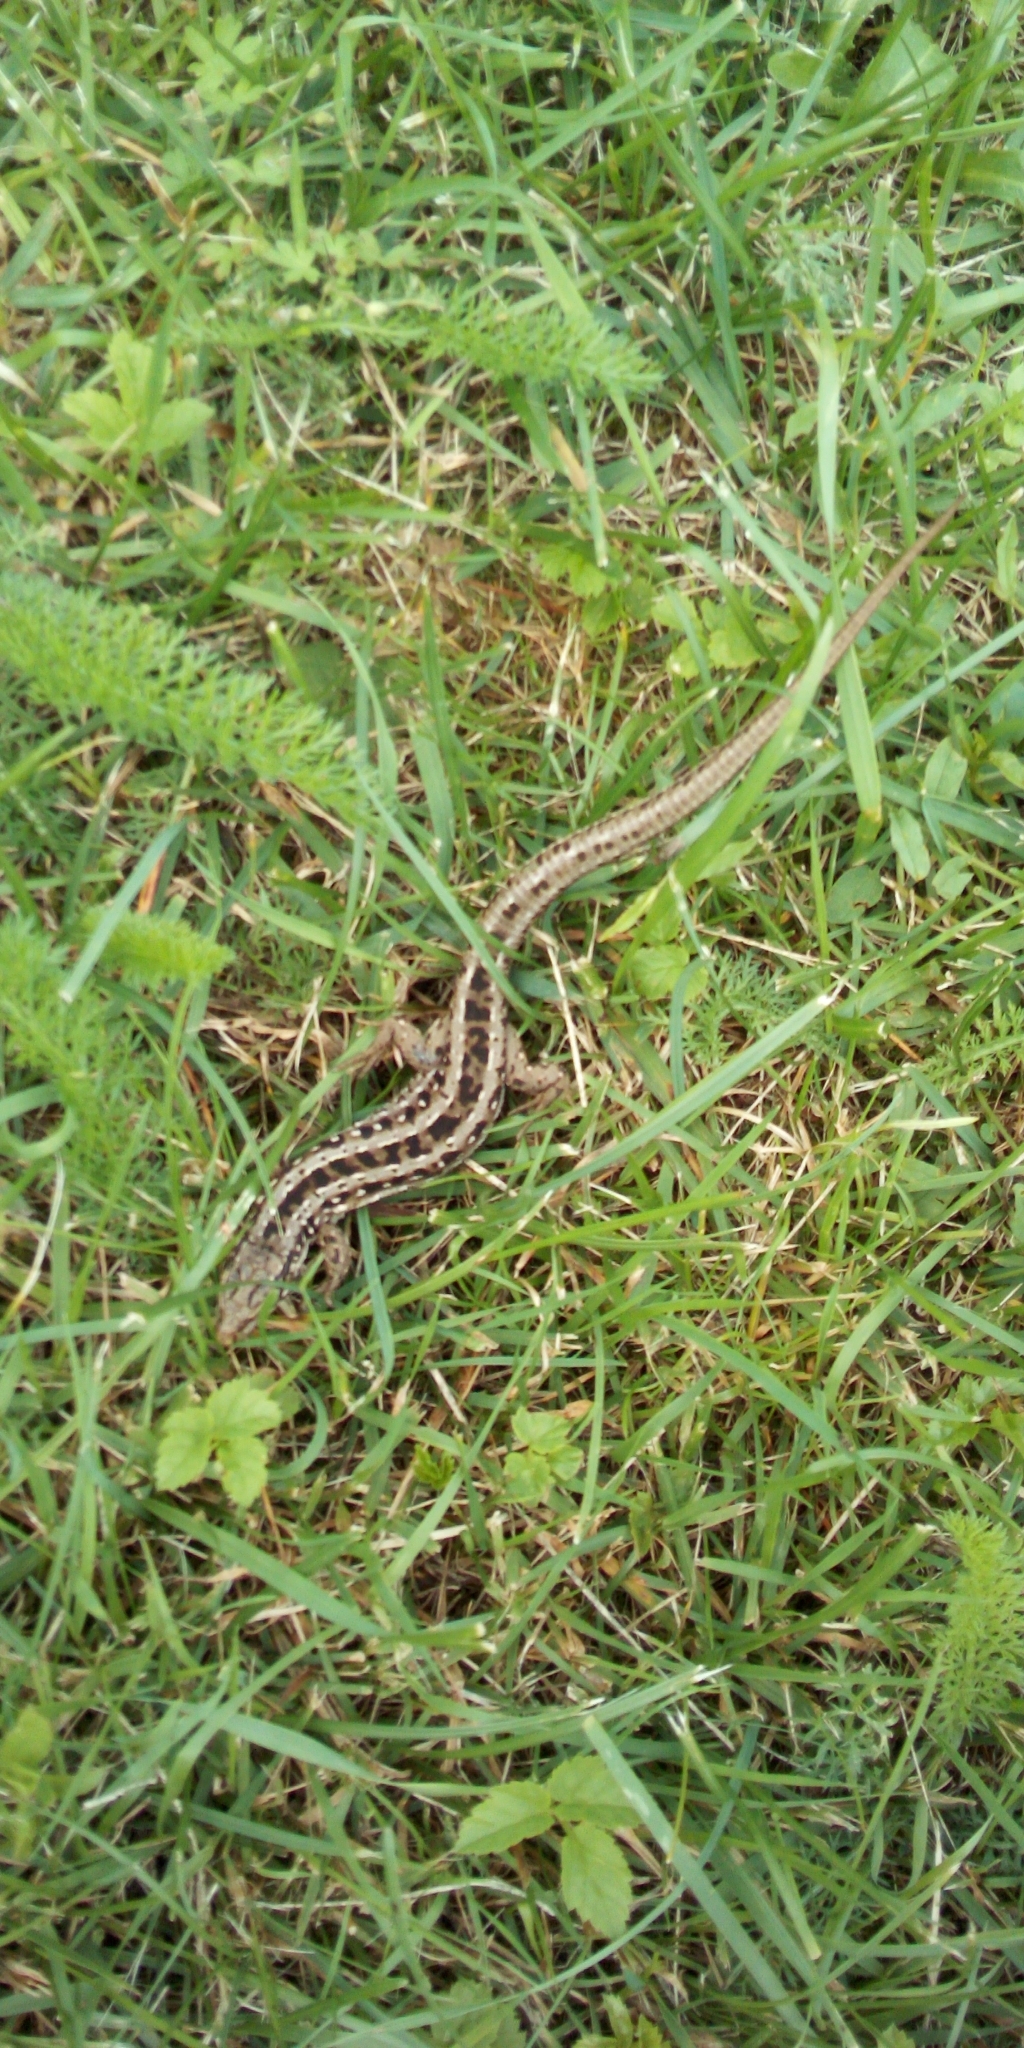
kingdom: Animalia
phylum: Chordata
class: Squamata
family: Lacertidae
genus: Lacerta
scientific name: Lacerta agilis
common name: Sand lizard
